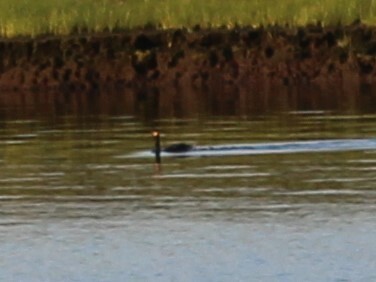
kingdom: Animalia
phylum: Chordata
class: Aves
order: Suliformes
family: Phalacrocoracidae
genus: Phalacrocorax
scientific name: Phalacrocorax auritus
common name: Double-crested cormorant
